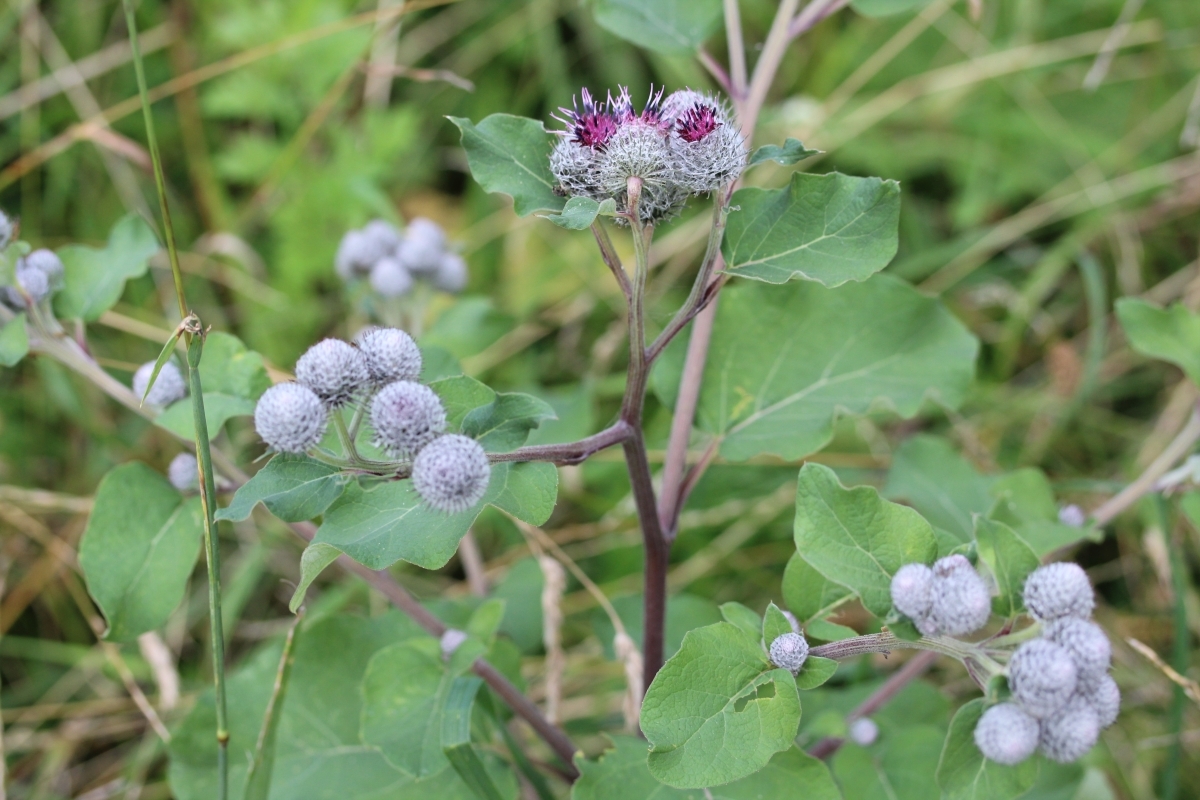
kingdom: Plantae
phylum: Tracheophyta
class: Magnoliopsida
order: Asterales
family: Asteraceae
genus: Arctium
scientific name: Arctium tomentosum
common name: Woolly burdock
